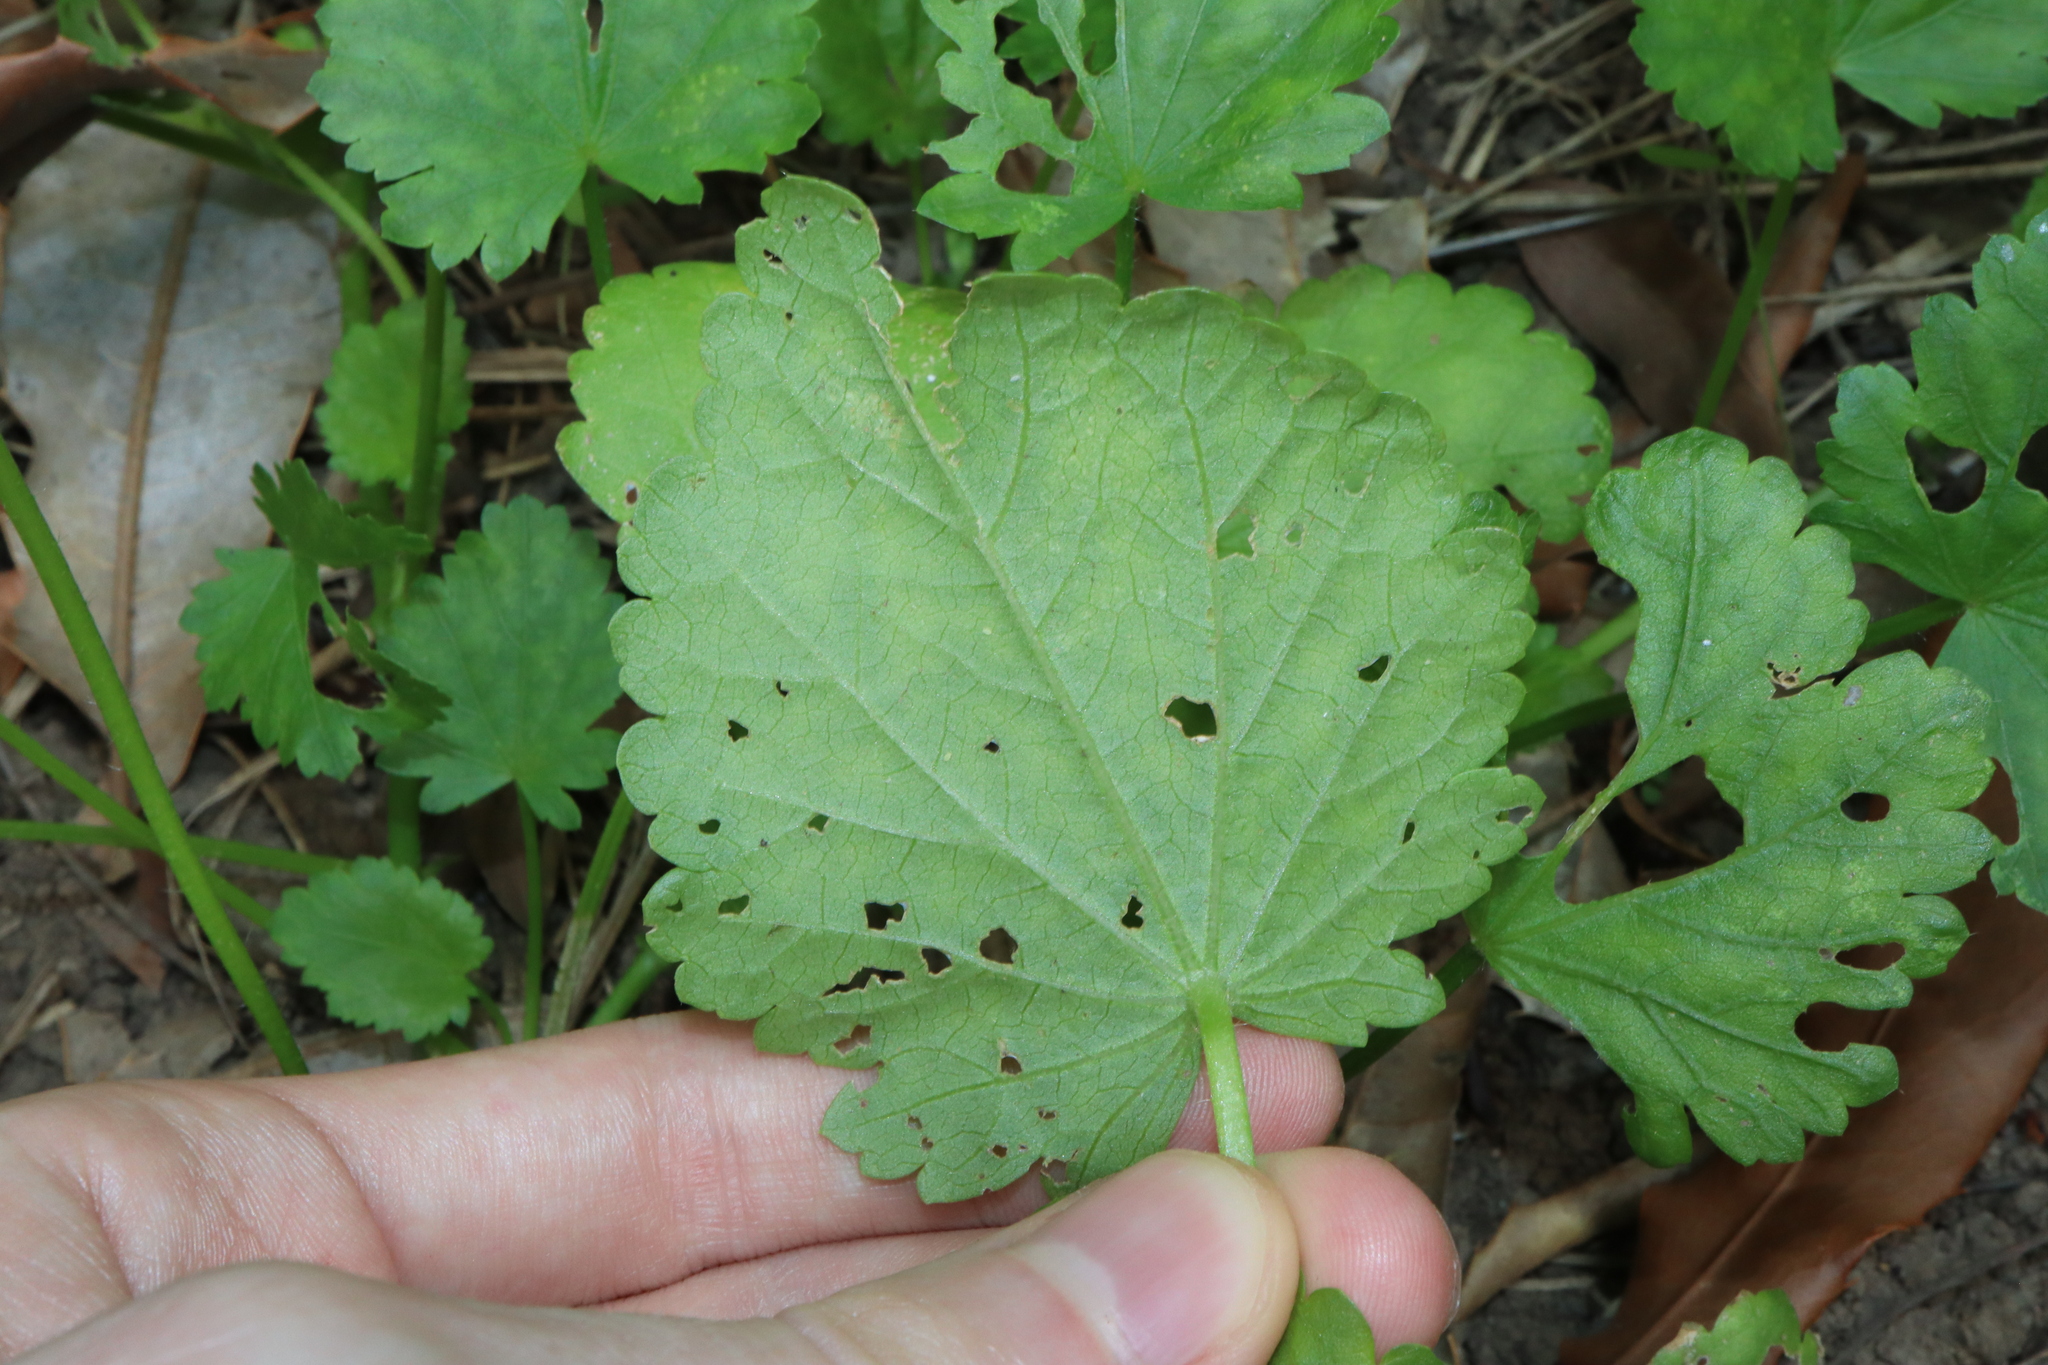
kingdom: Plantae
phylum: Tracheophyta
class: Magnoliopsida
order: Malvales
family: Malvaceae
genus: Modiola
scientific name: Modiola caroliniana
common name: Carolina bristlemallow
